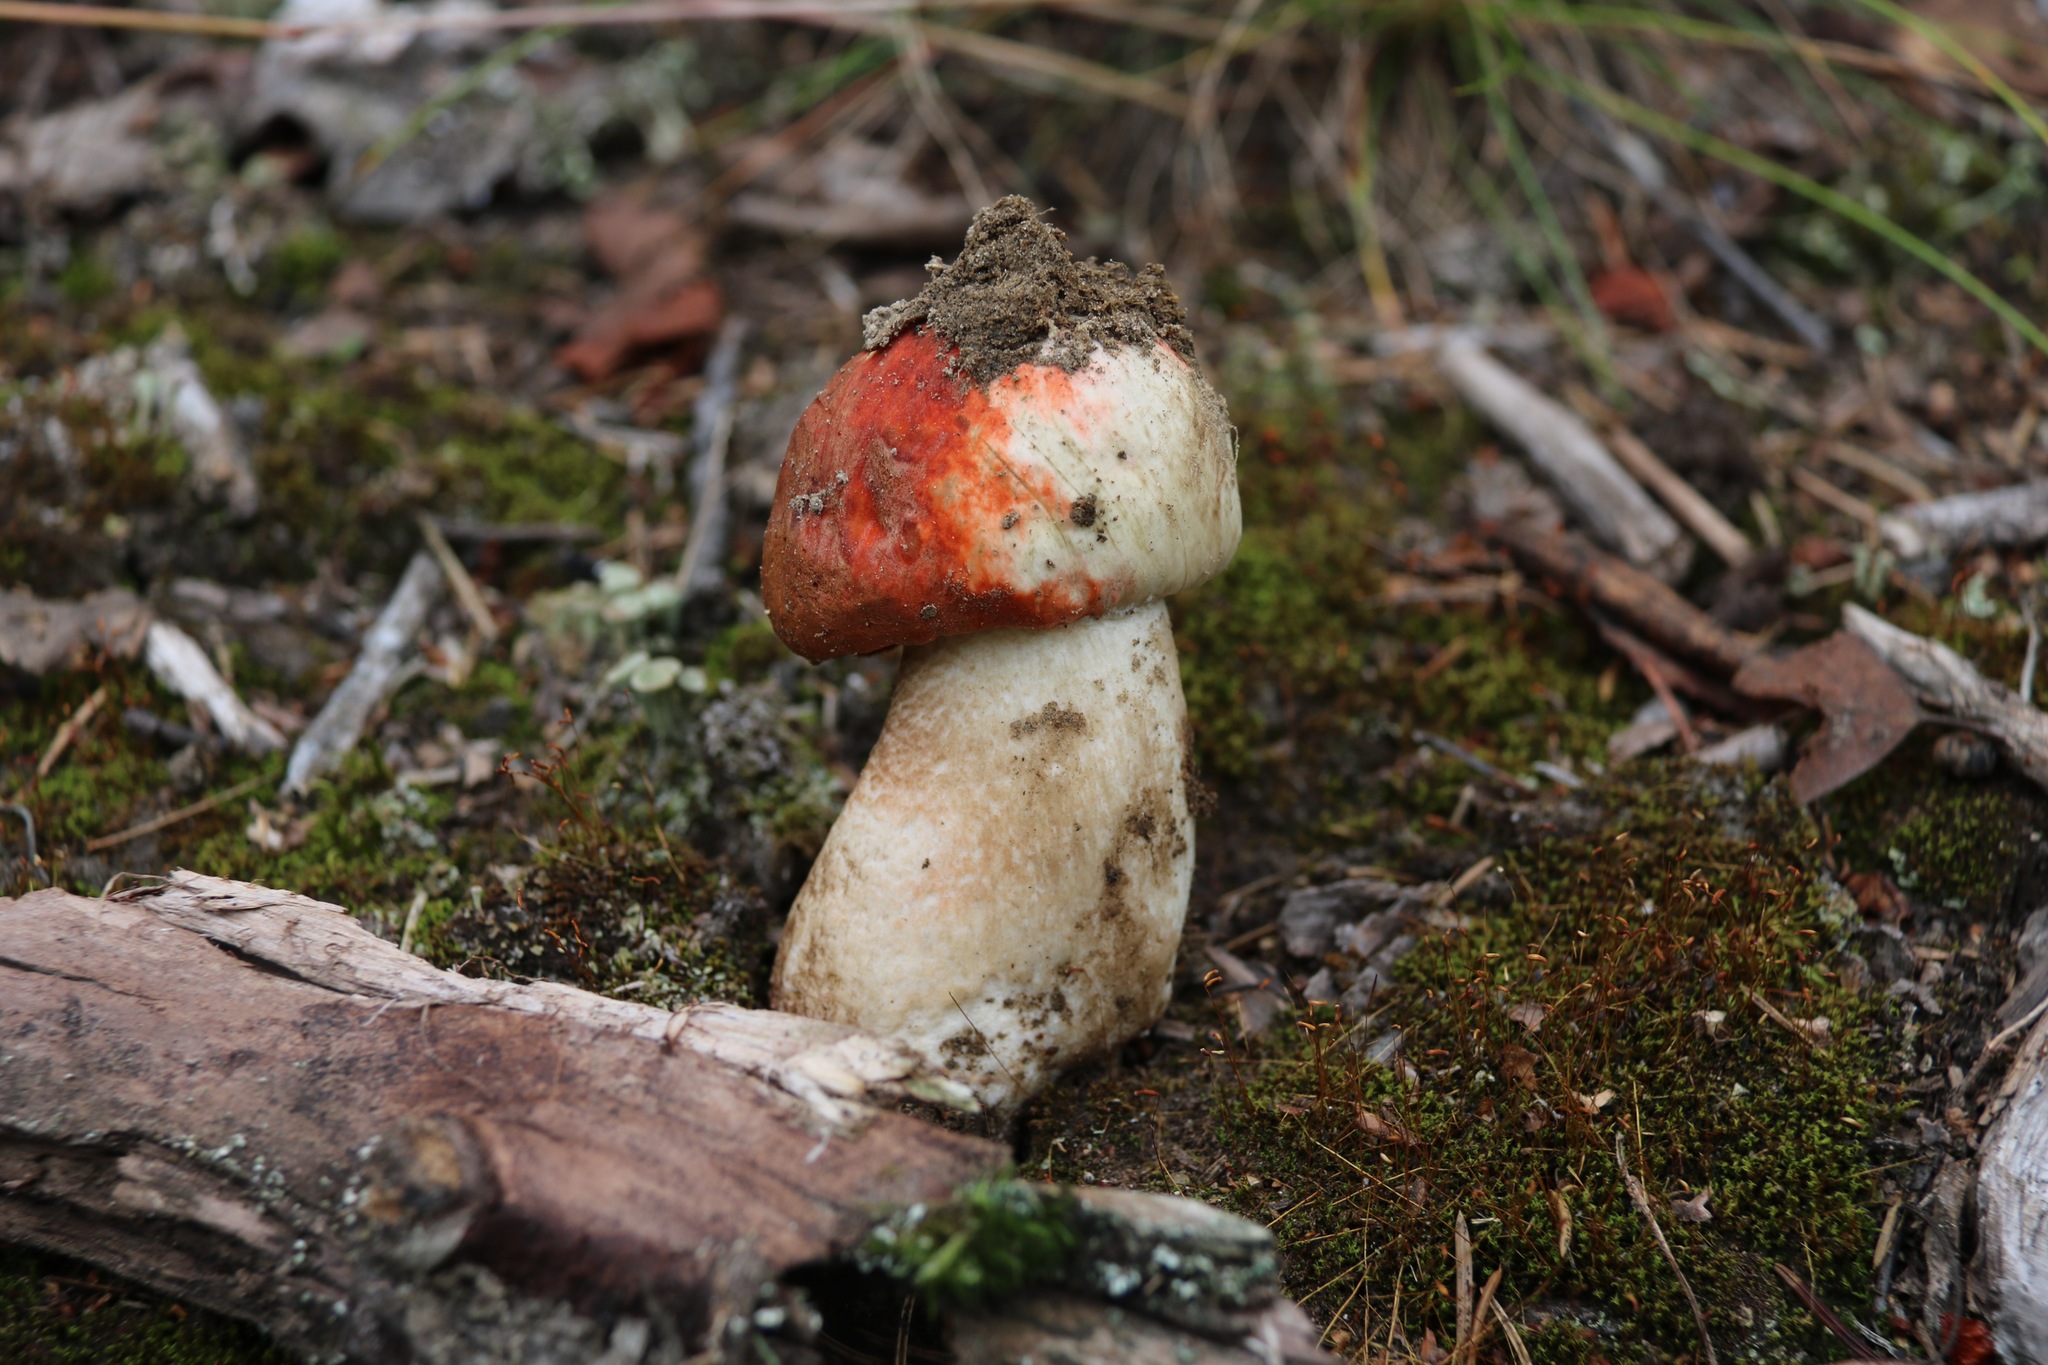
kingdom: Fungi
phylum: Basidiomycota
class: Agaricomycetes
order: Boletales
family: Boletaceae
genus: Leccinum
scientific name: Leccinum aurantiacum
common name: Orange bolete
